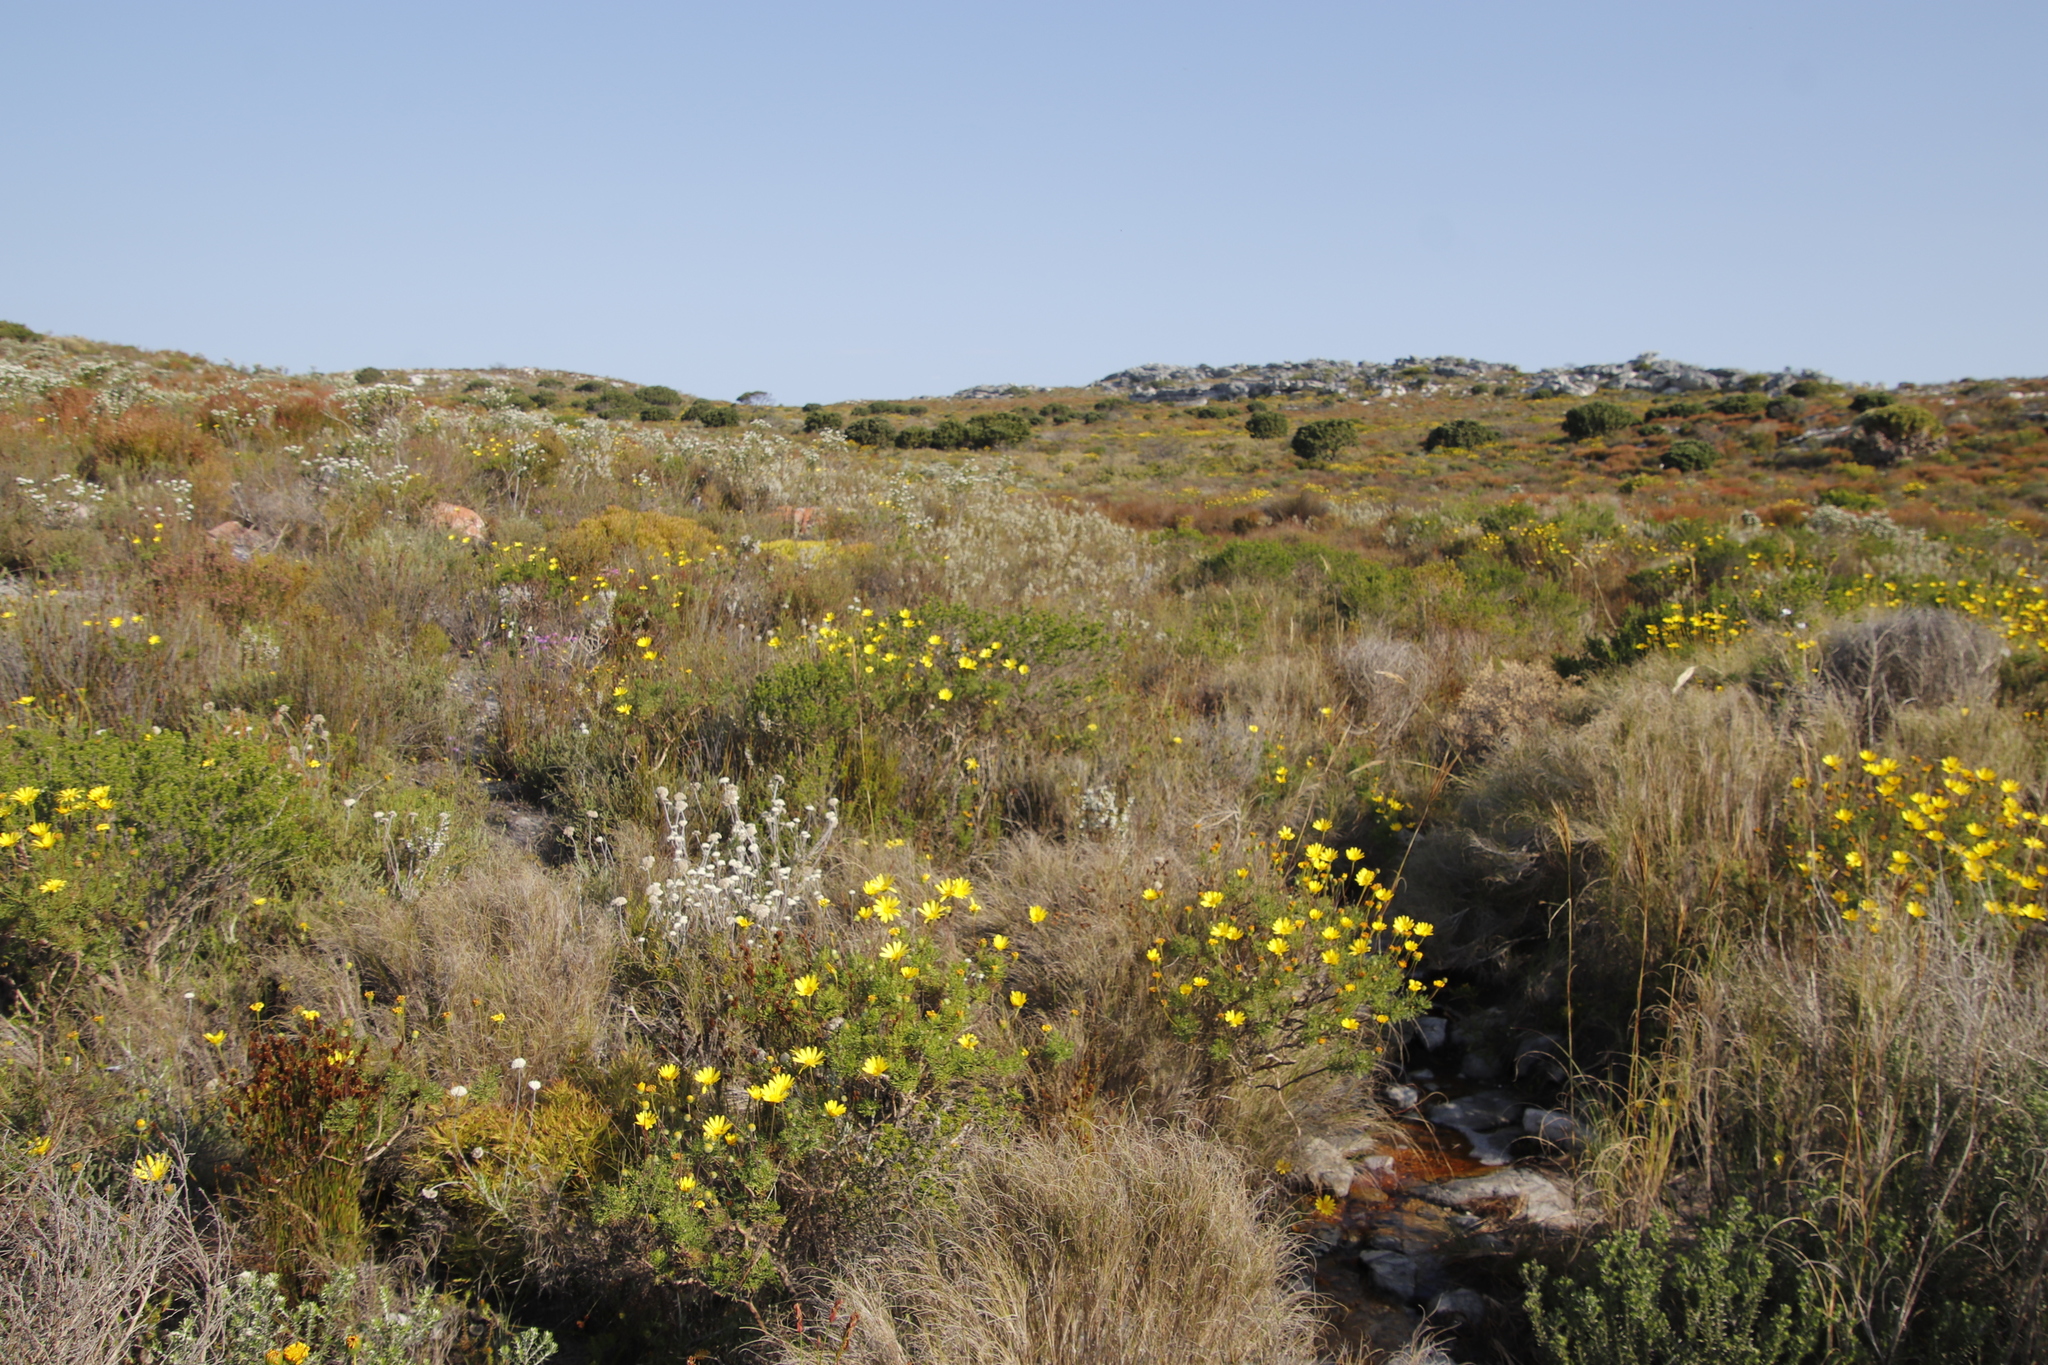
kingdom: Plantae
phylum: Tracheophyta
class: Magnoliopsida
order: Asterales
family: Asteraceae
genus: Euryops
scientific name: Euryops abrotanifolius
